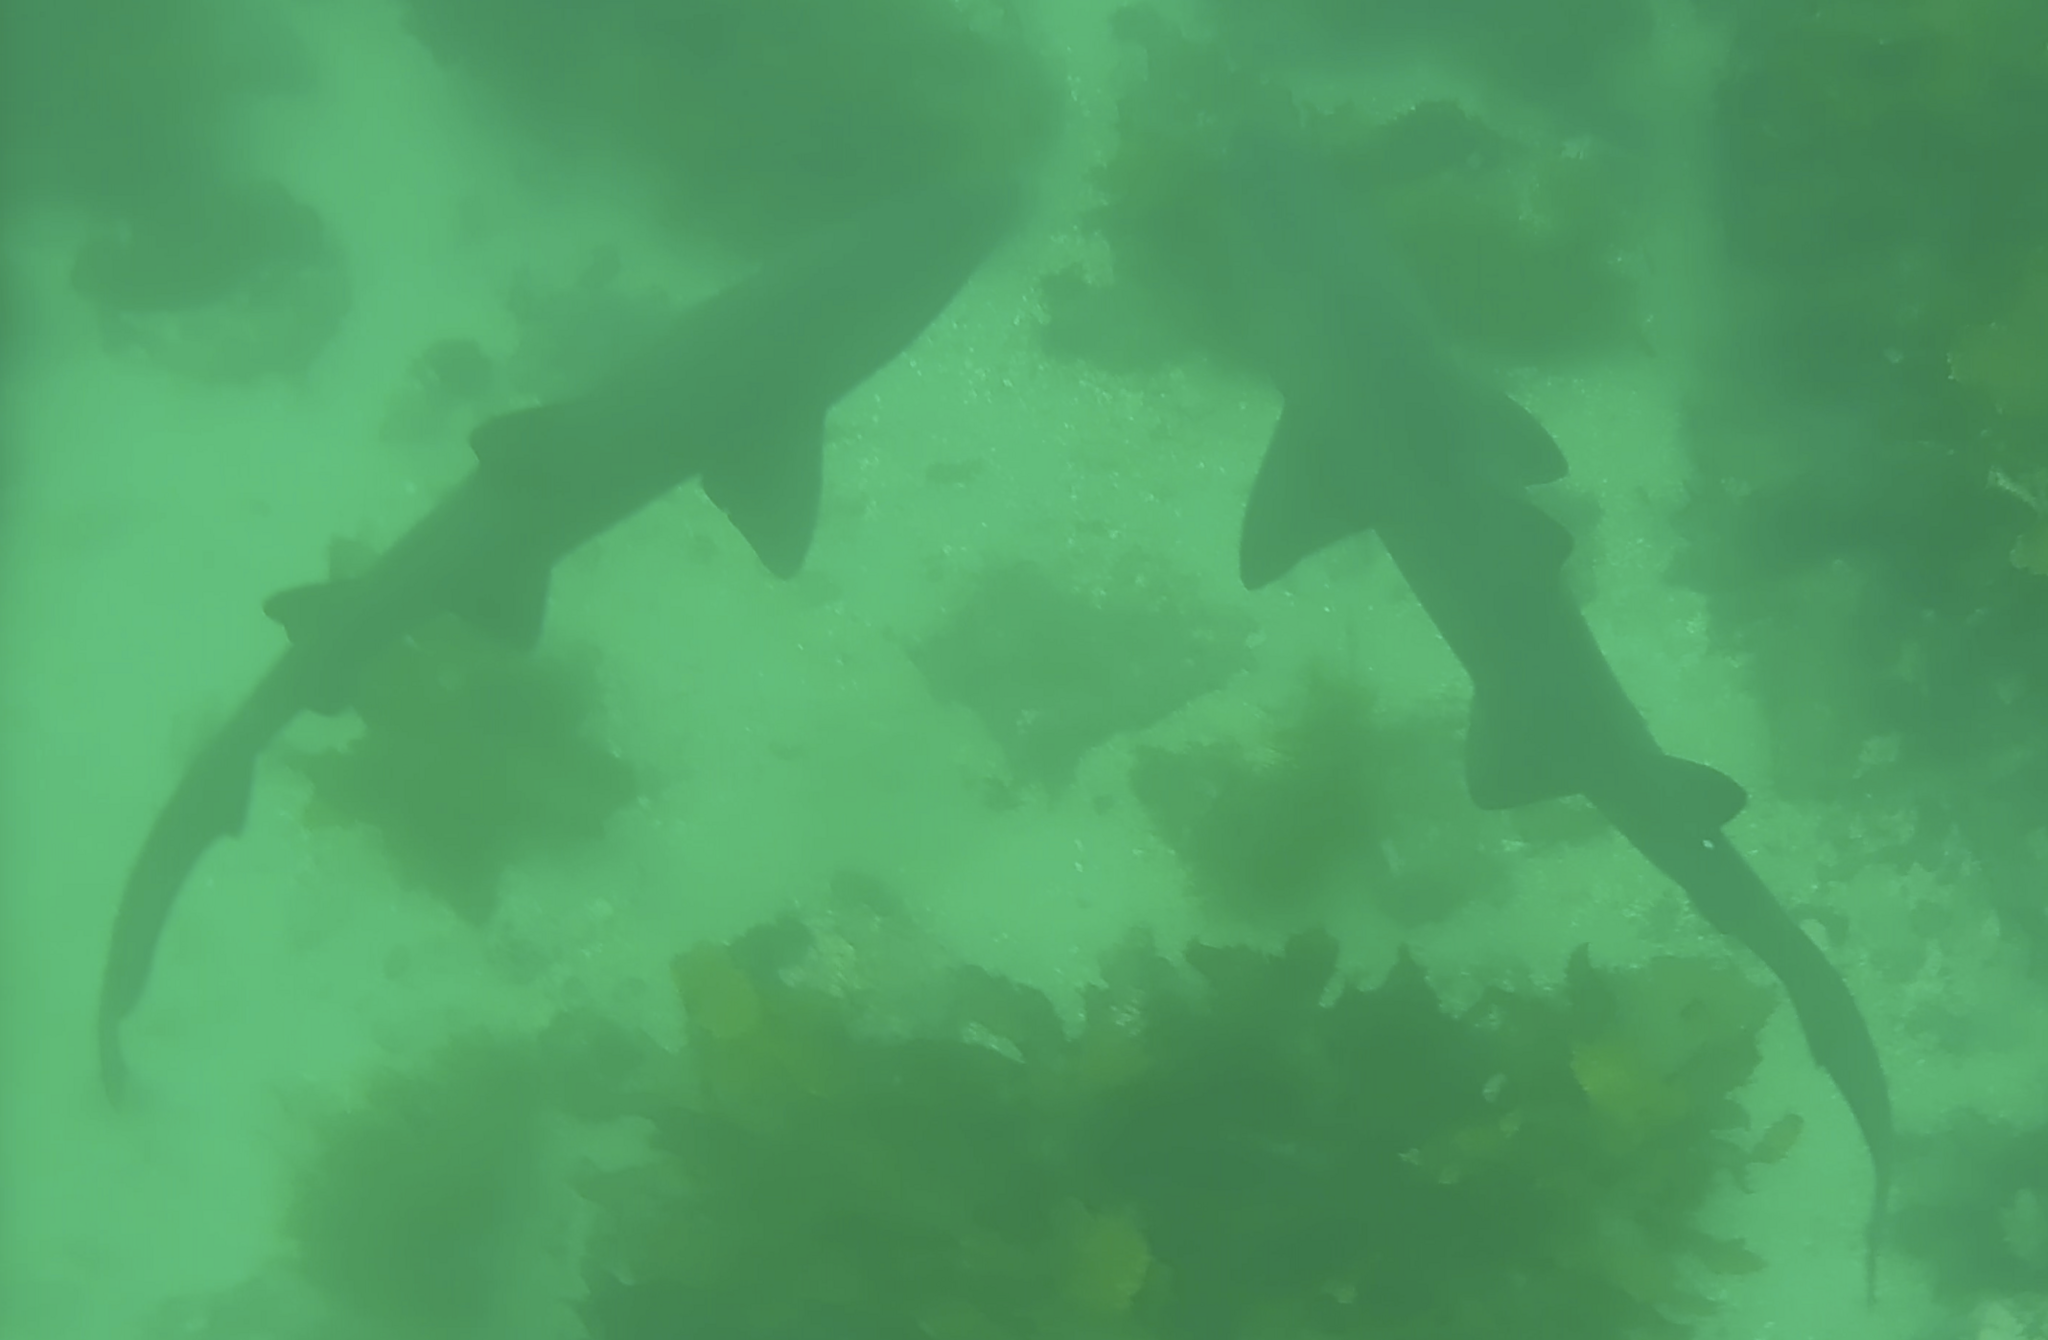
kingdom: Animalia
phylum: Chordata
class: Elasmobranchii
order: Lamniformes
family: Odontaspididae
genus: Carcharias
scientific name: Carcharias taurus
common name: Sand shark
